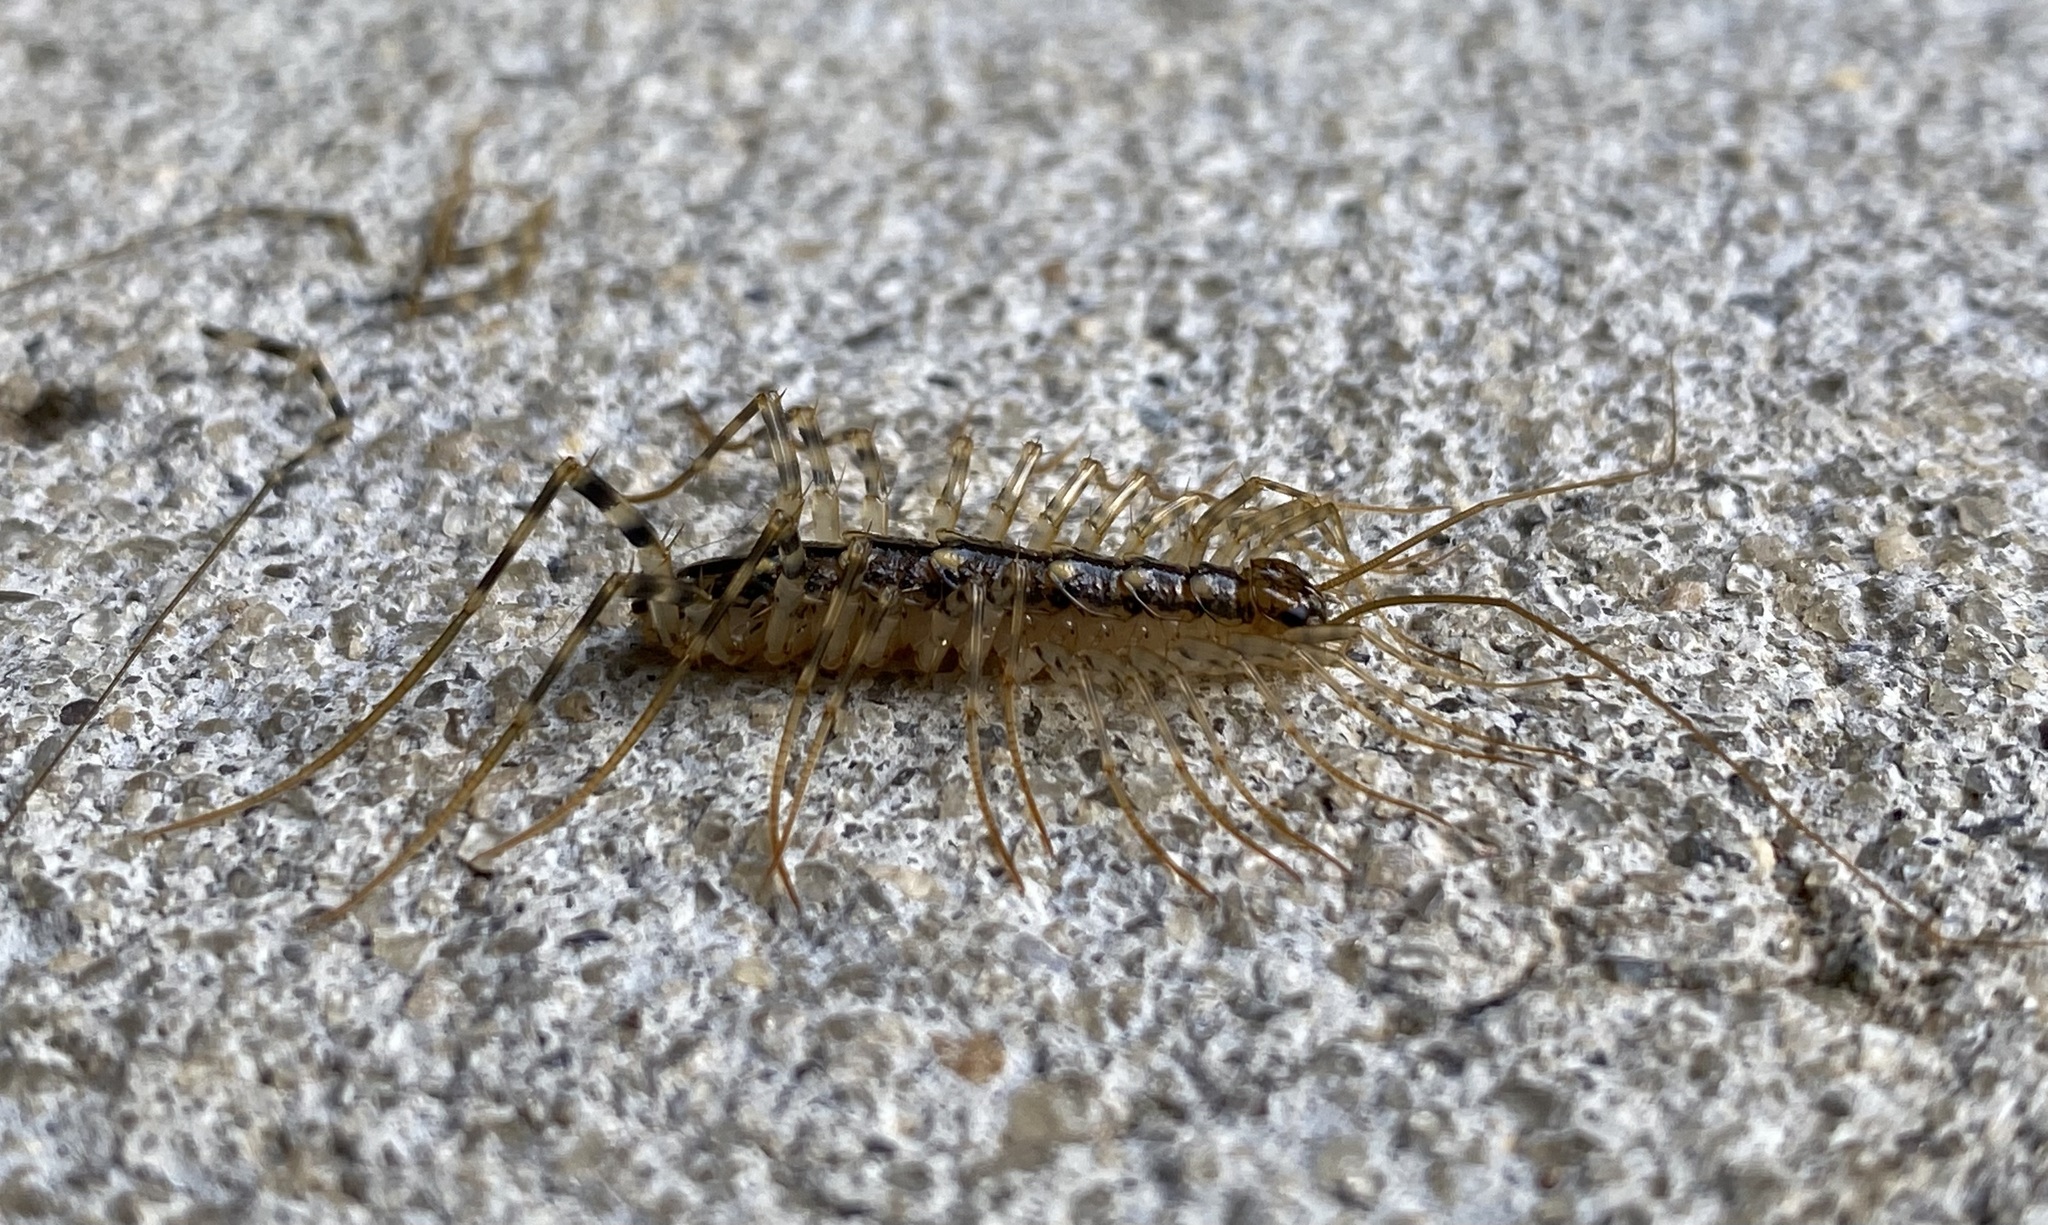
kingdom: Animalia
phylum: Arthropoda
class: Chilopoda
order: Scutigeromorpha
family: Scutigeridae
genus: Thereuonema
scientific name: Thereuonema tuberculata
